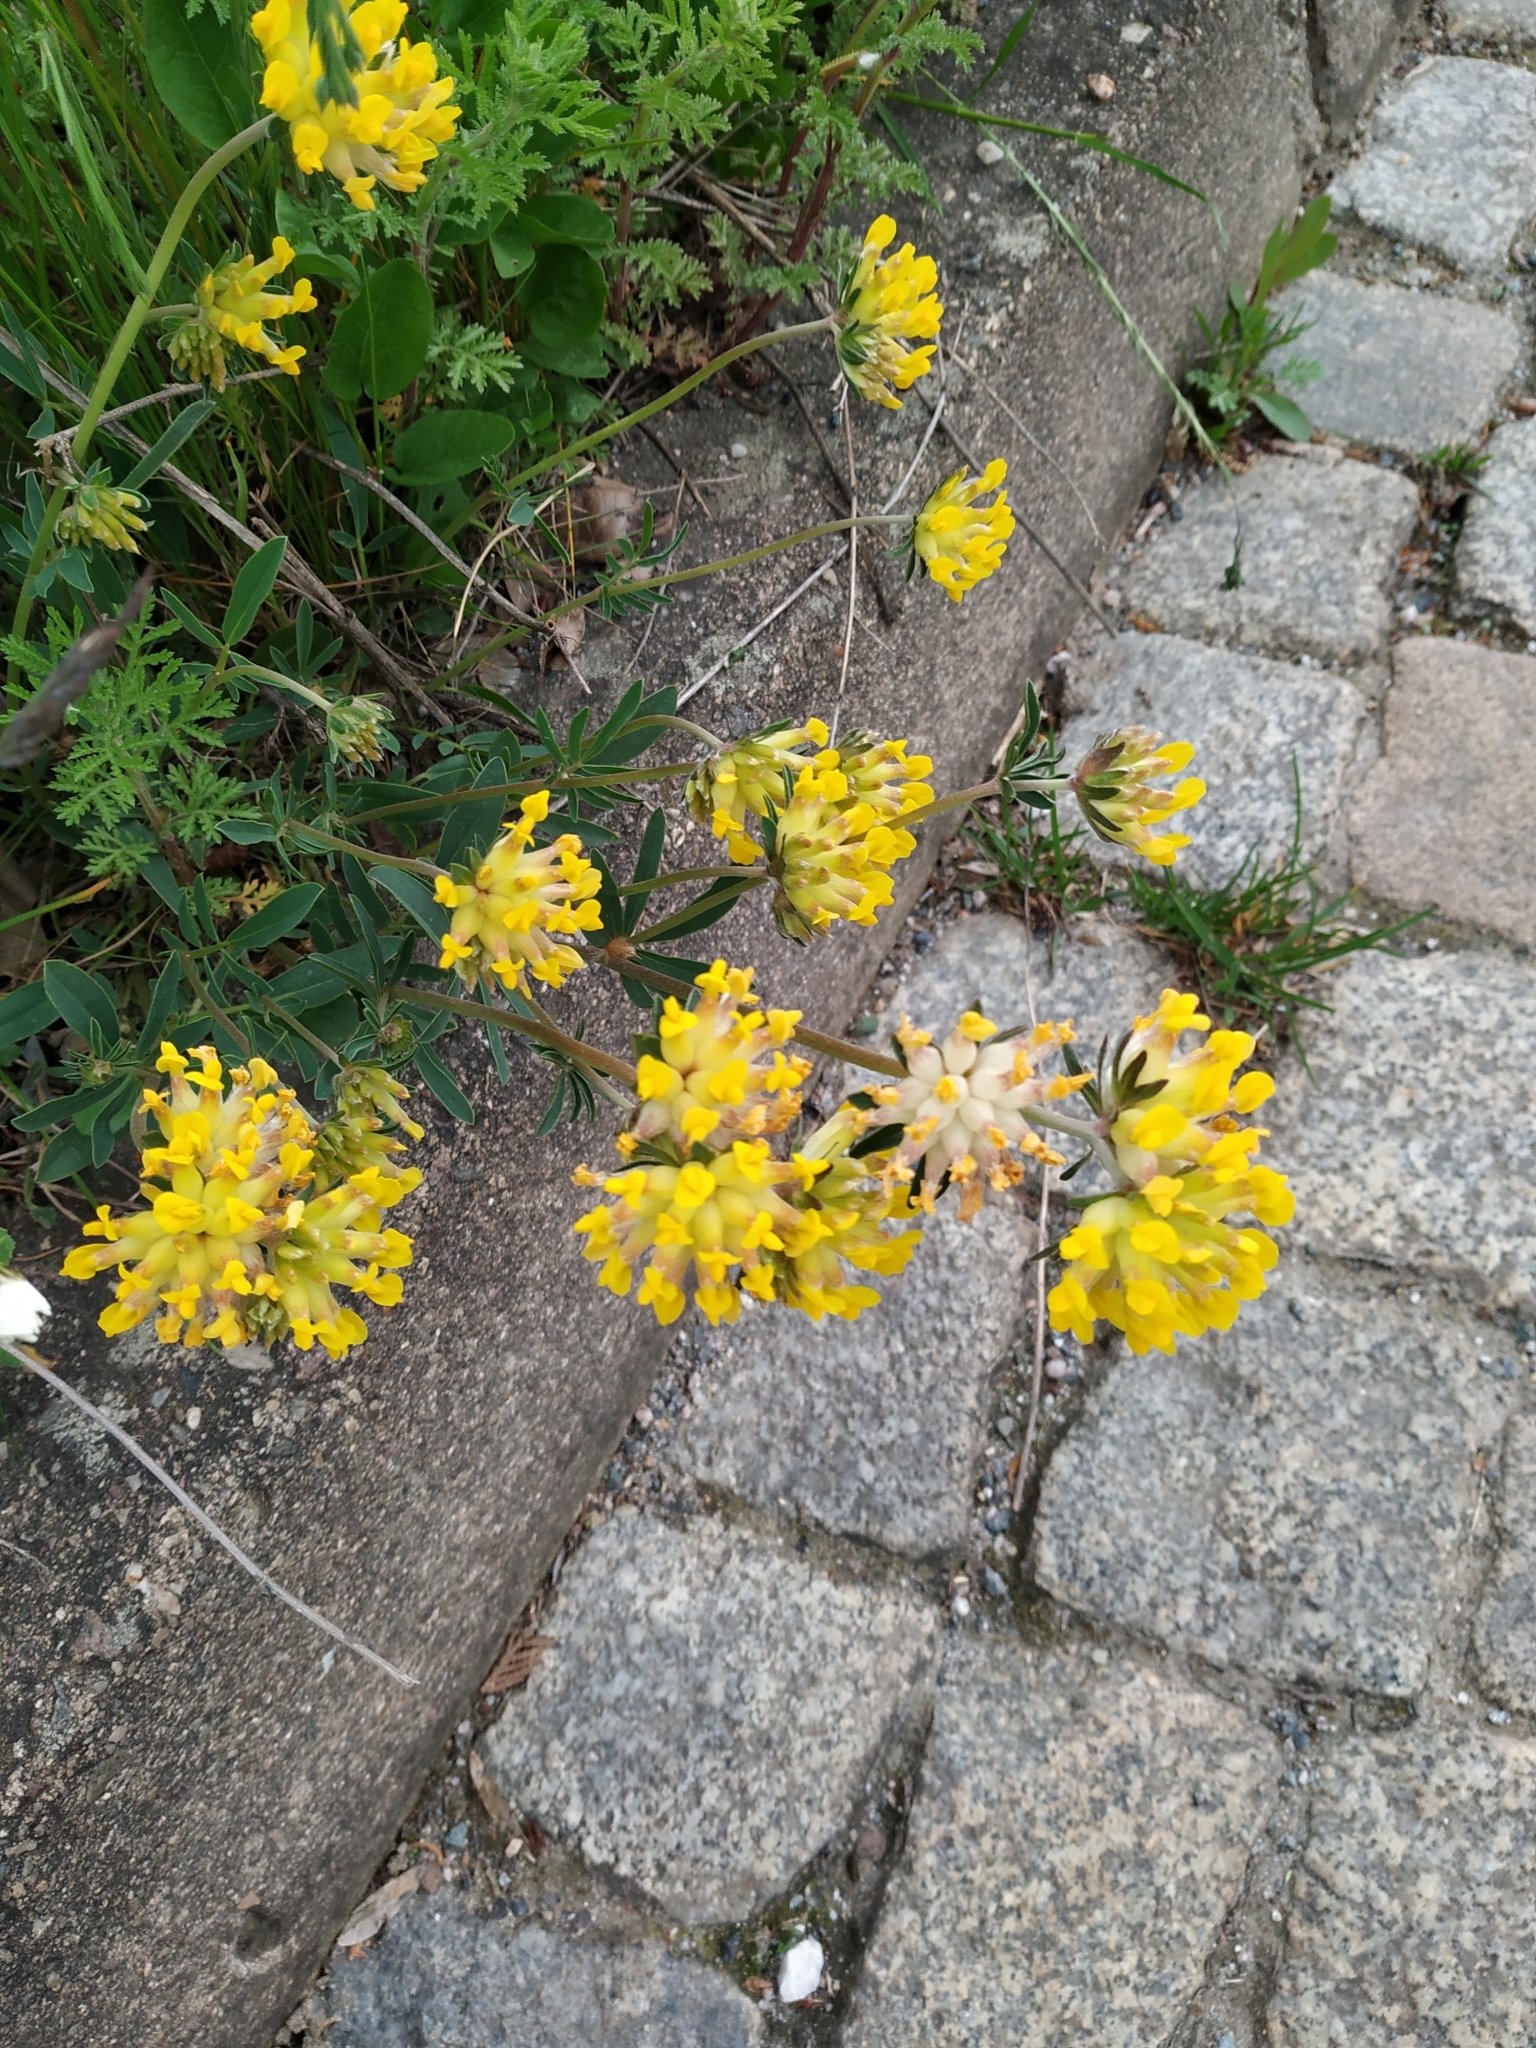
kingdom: Plantae
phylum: Tracheophyta
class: Magnoliopsida
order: Fabales
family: Fabaceae
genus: Anthyllis
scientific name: Anthyllis vulneraria
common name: Kidney vetch
